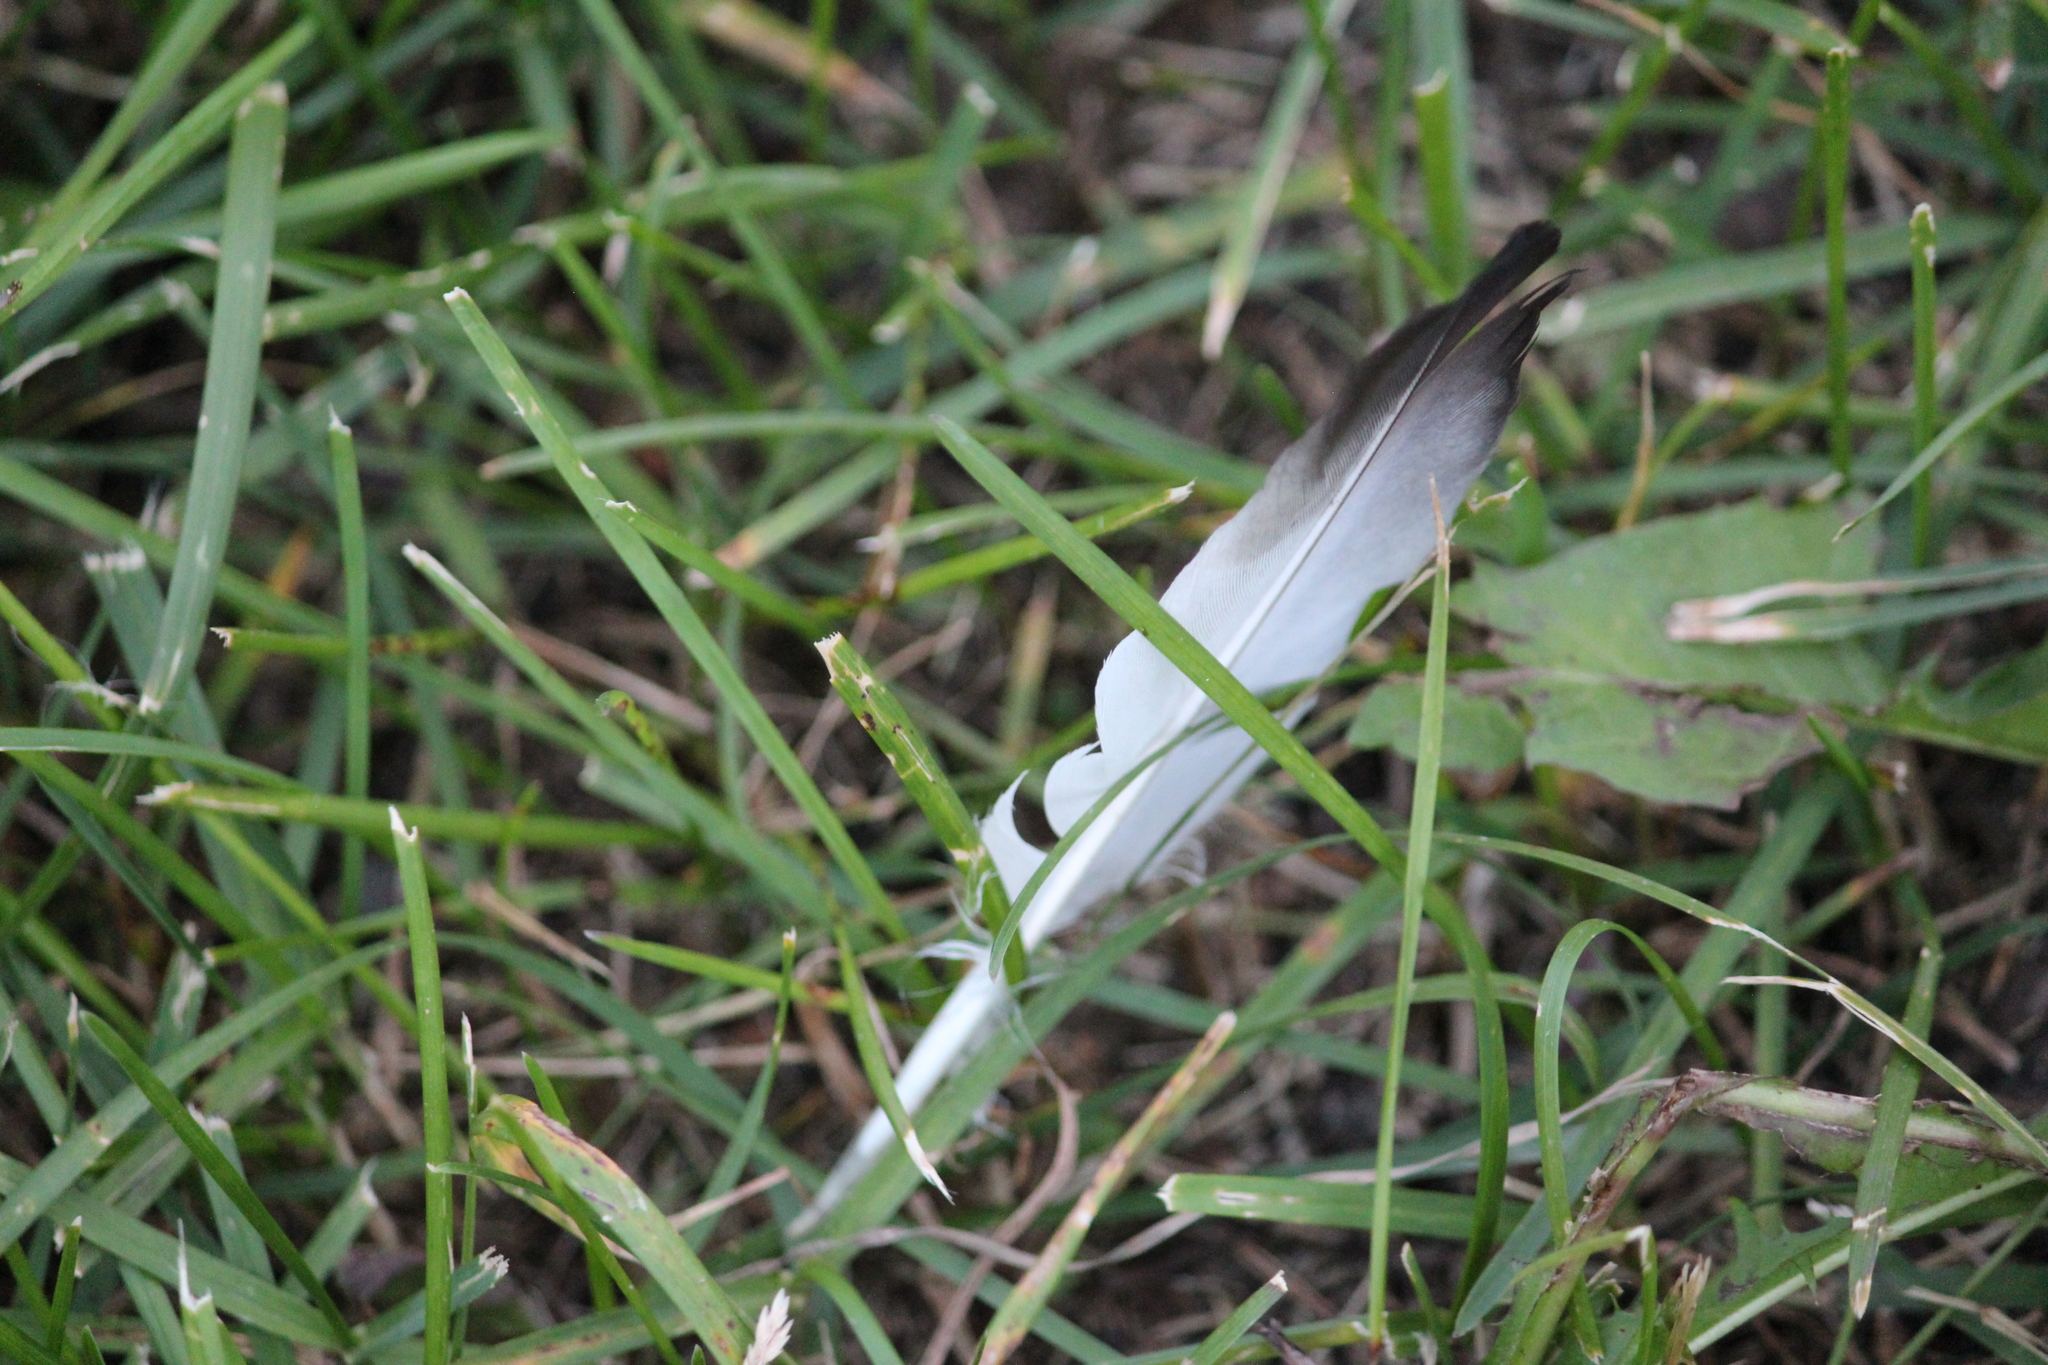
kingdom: Animalia
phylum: Chordata
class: Aves
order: Columbiformes
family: Columbidae
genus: Columba
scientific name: Columba livia
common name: Rock pigeon
